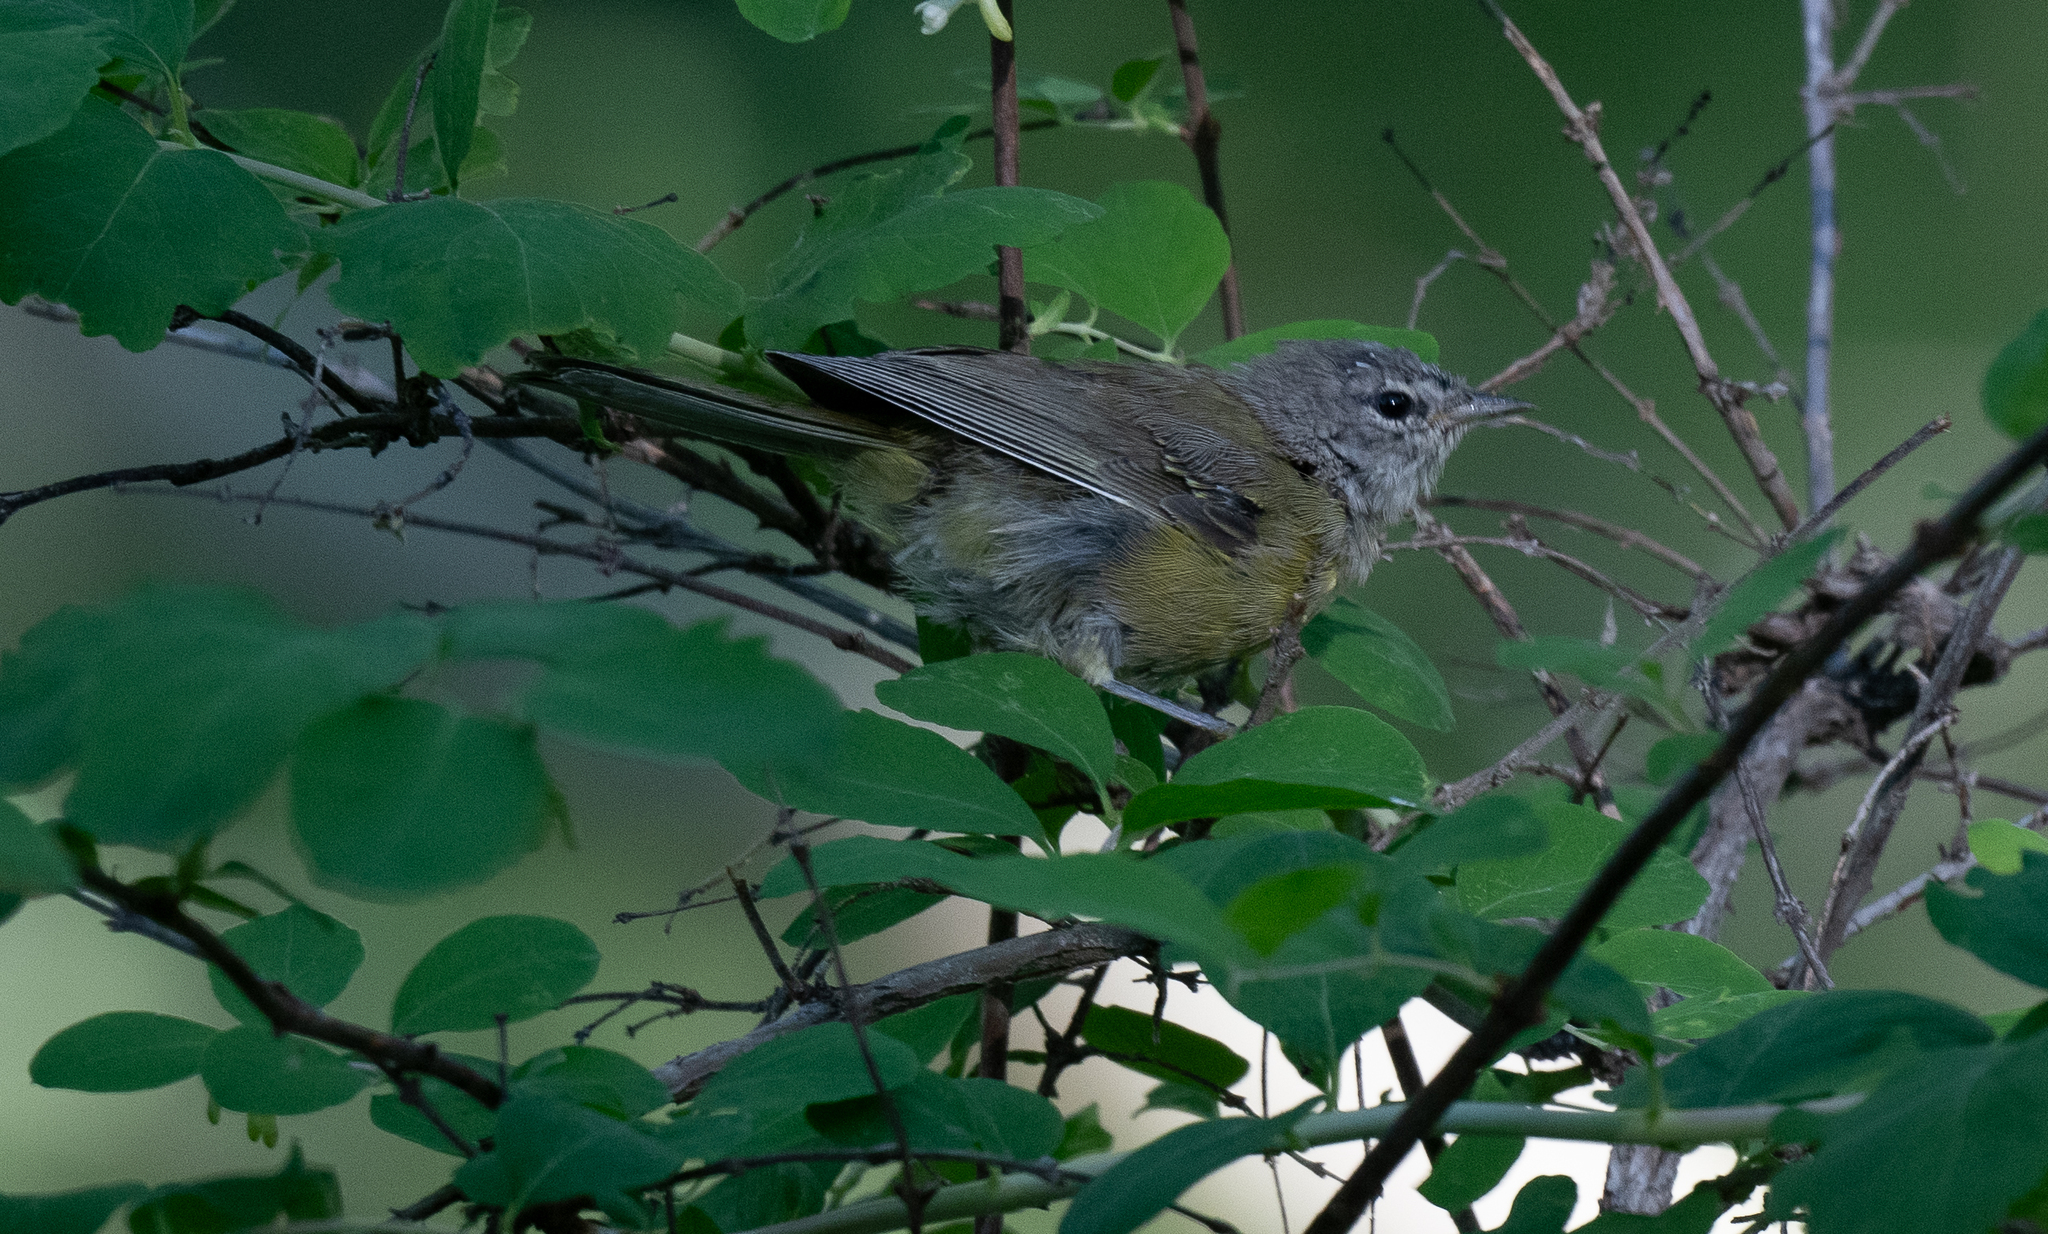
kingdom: Animalia
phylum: Chordata
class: Aves
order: Passeriformes
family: Parulidae
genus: Geothlypis
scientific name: Geothlypis tolmiei
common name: Macgillivray's warbler
